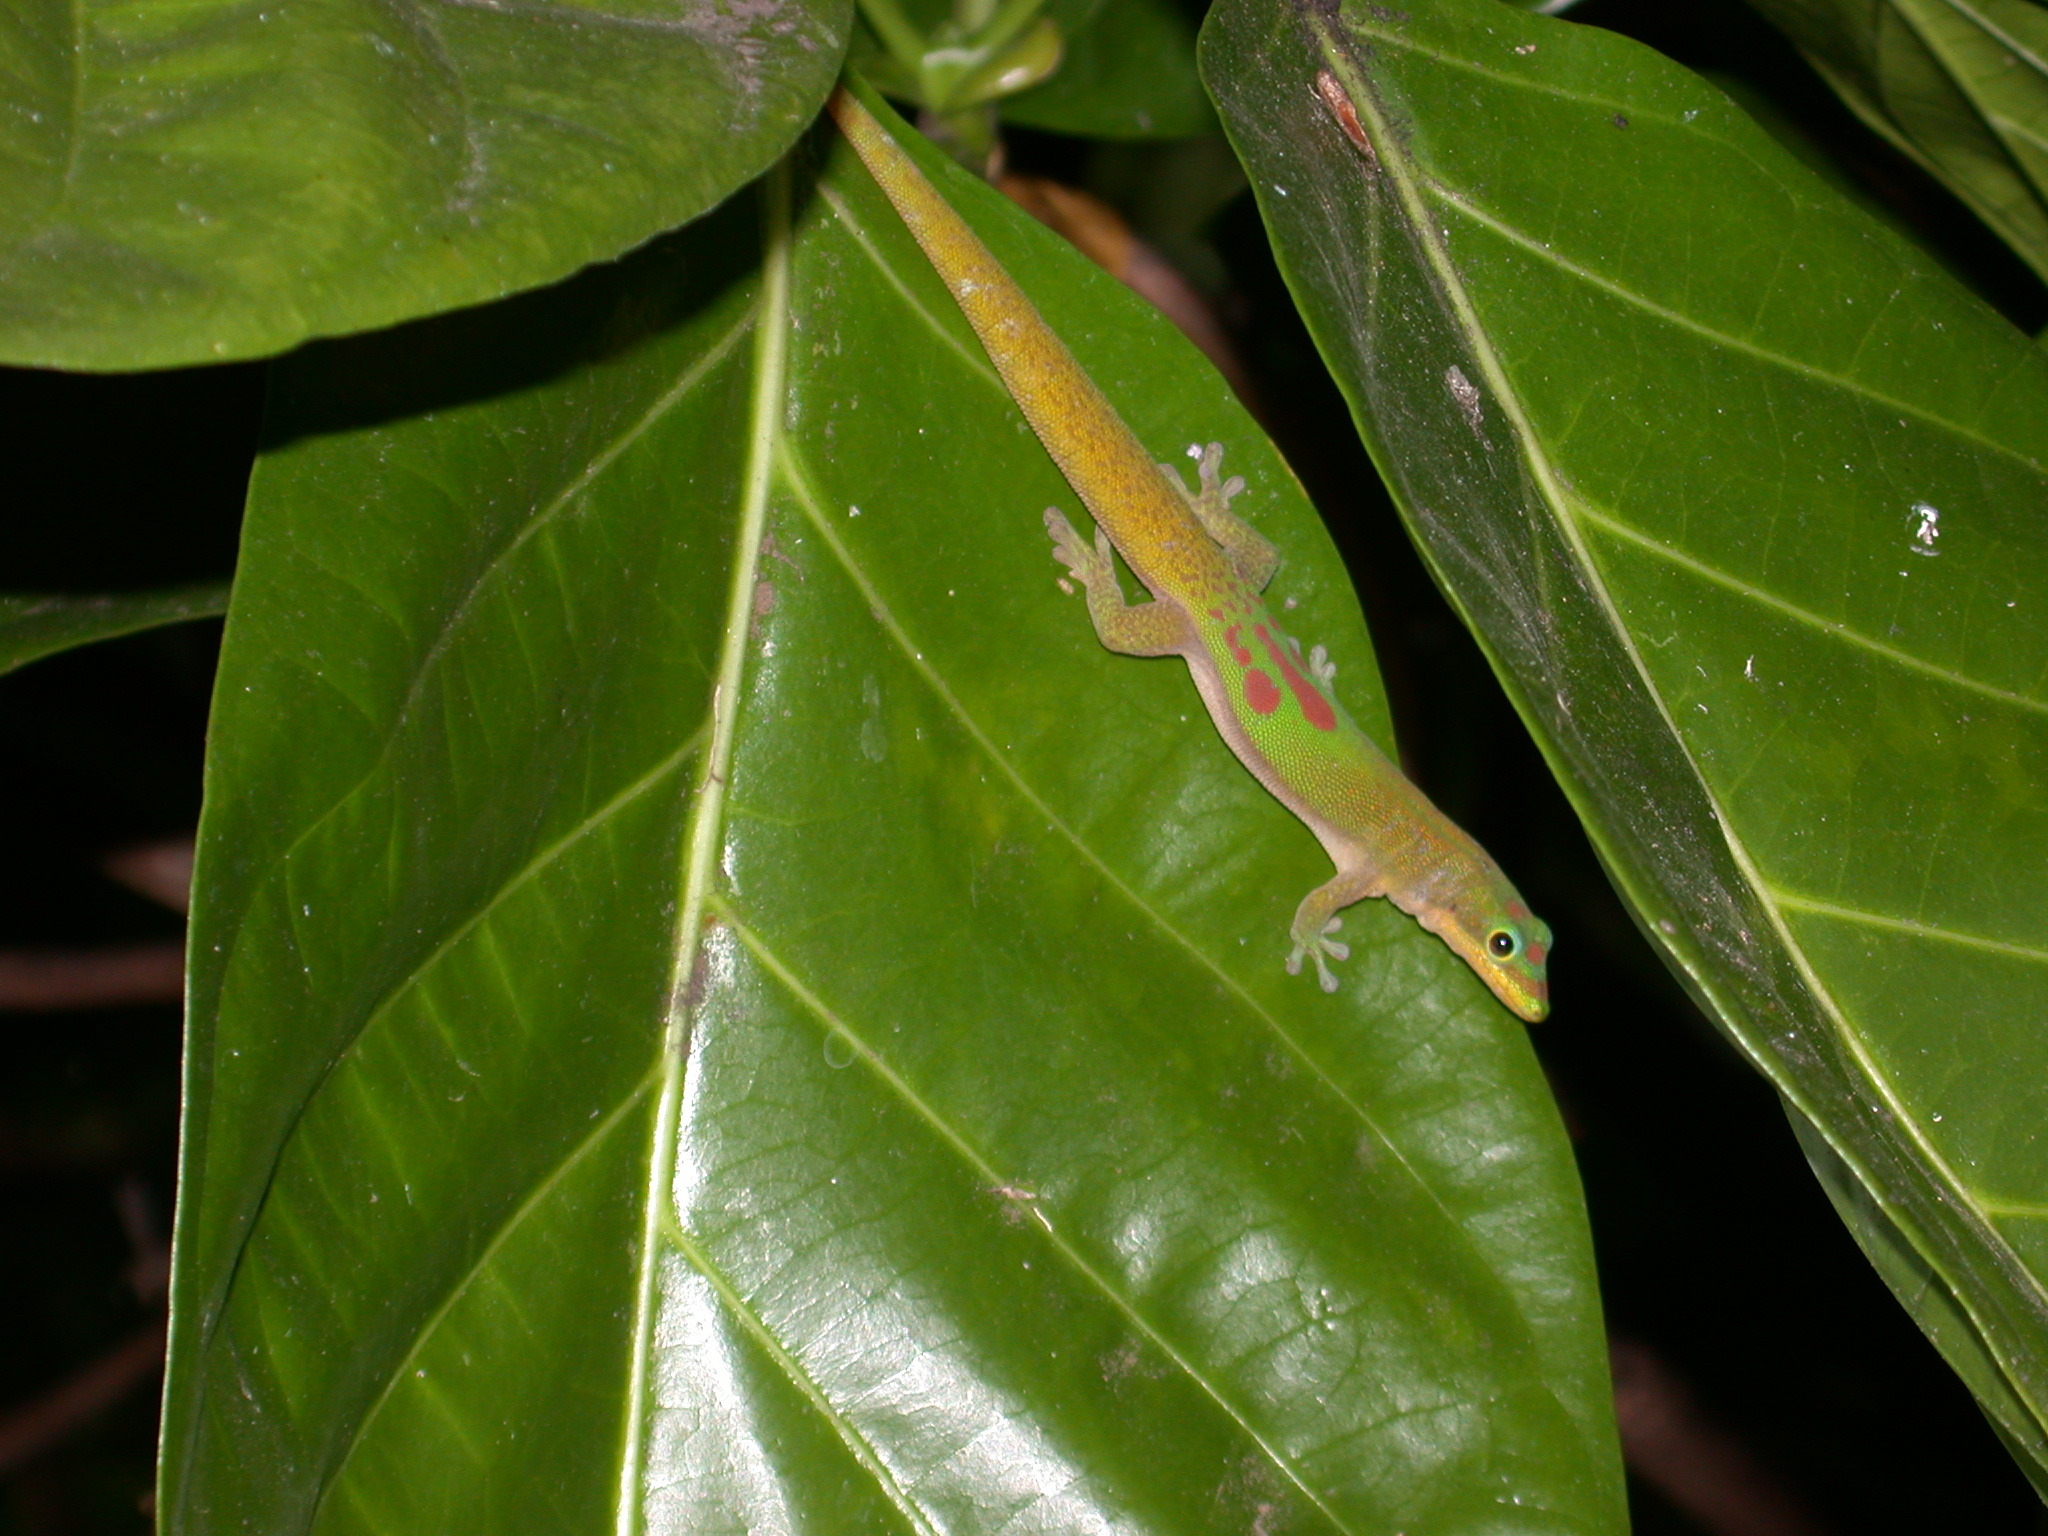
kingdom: Animalia
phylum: Chordata
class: Squamata
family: Gekkonidae
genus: Phelsuma
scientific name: Phelsuma laticauda
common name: Gold dust day gecko
